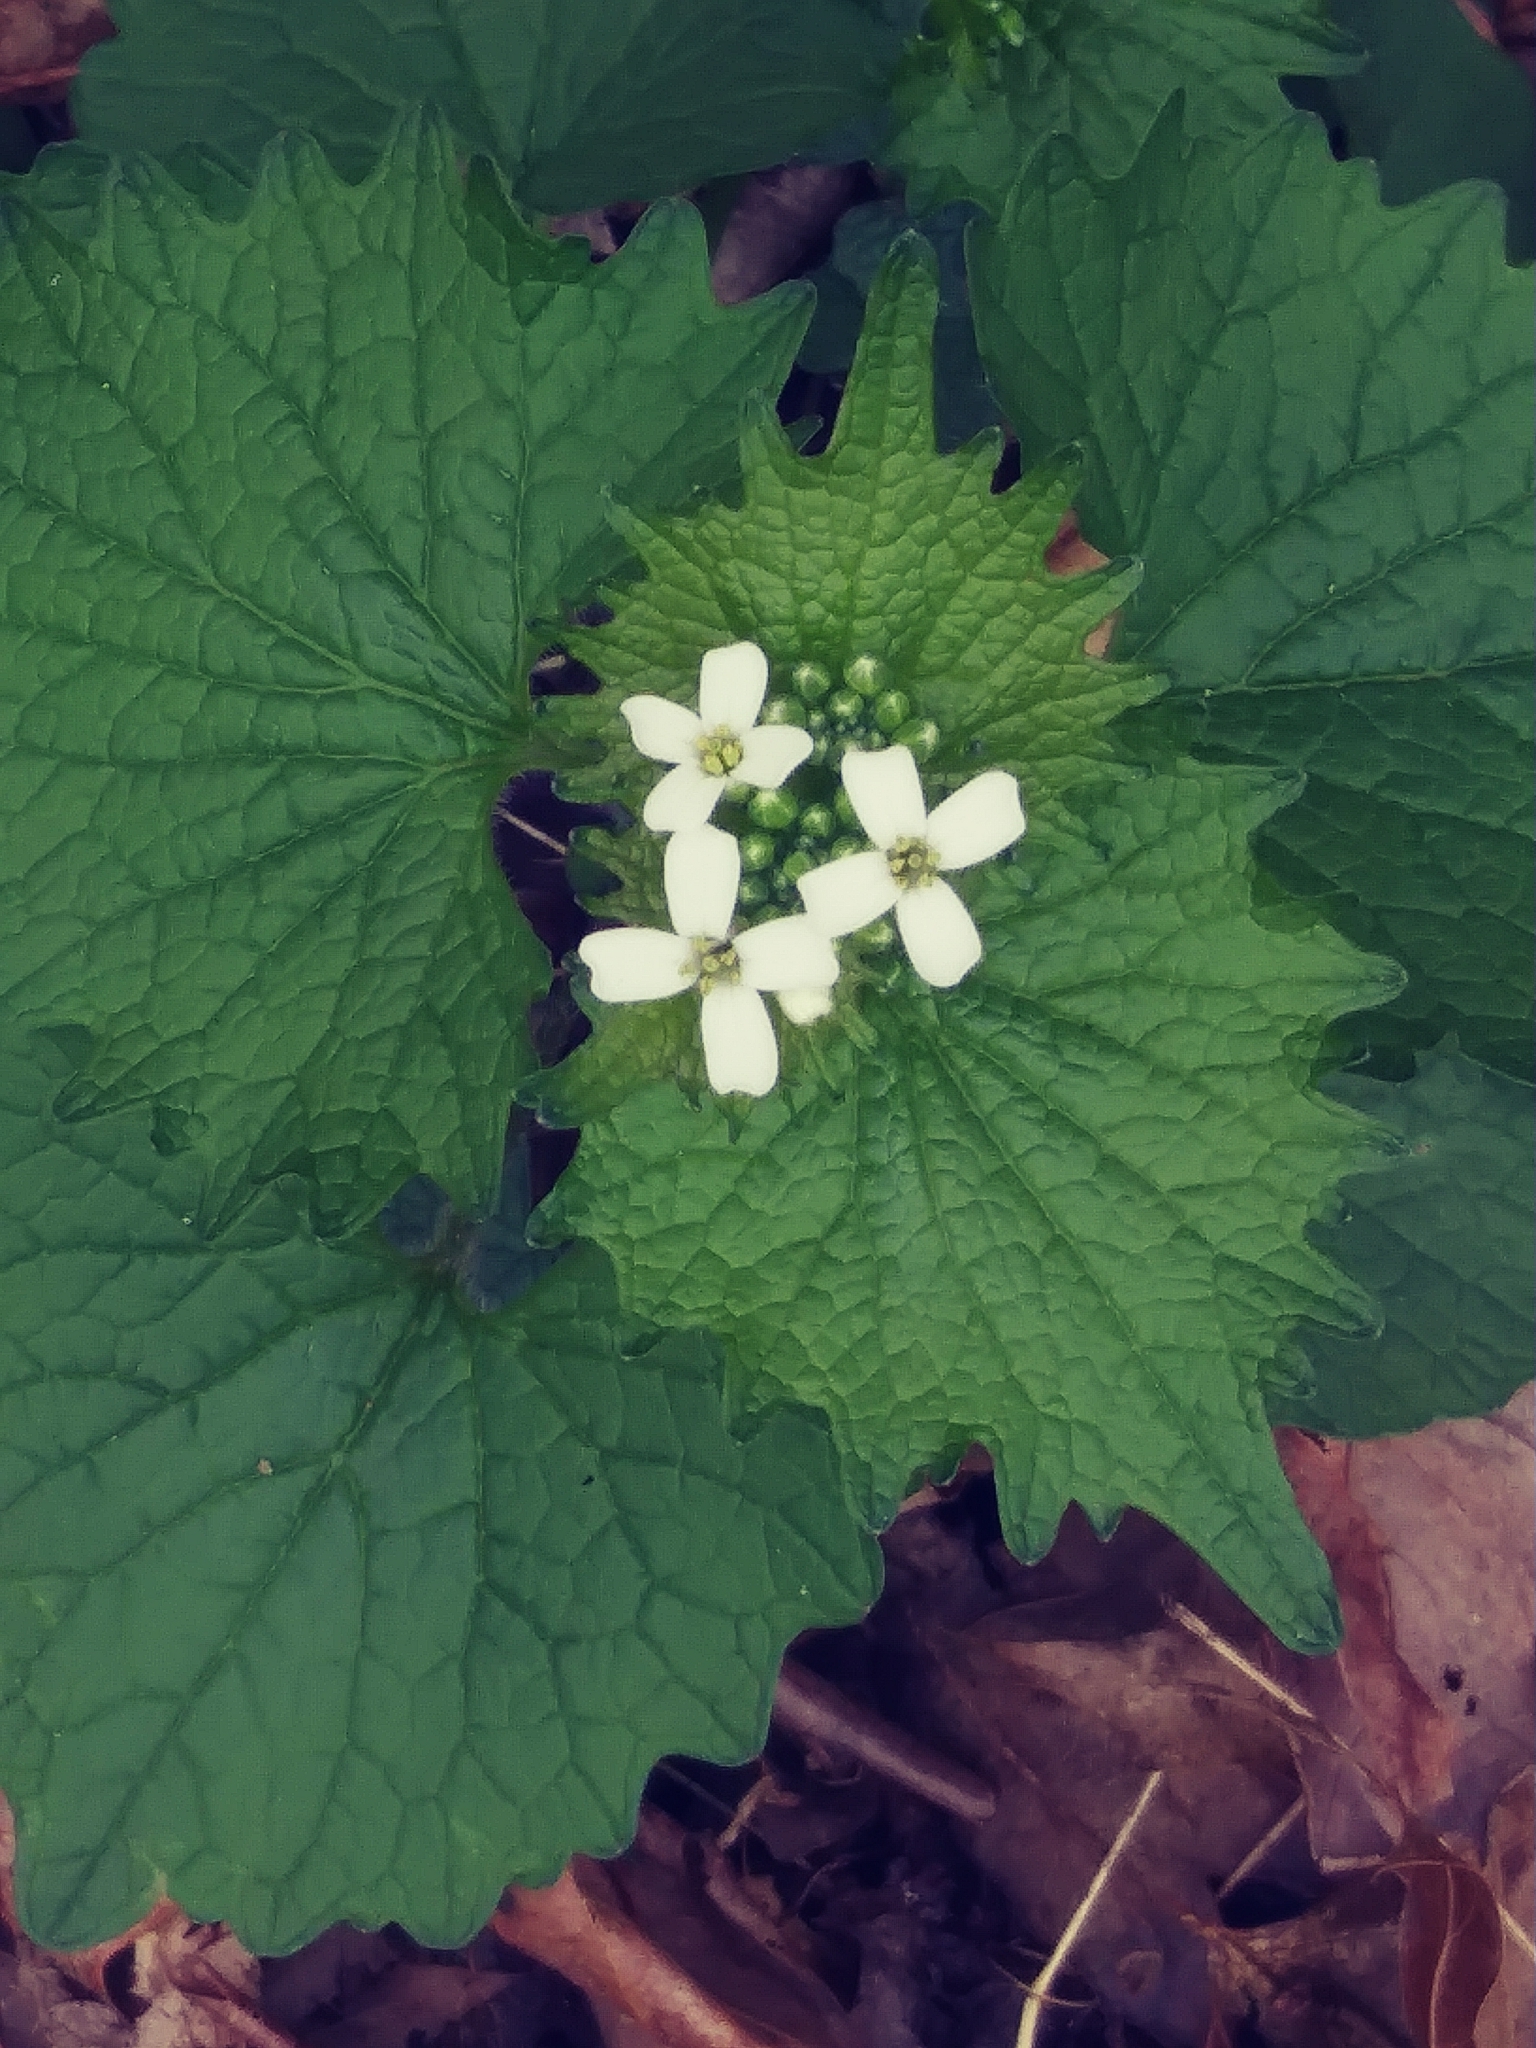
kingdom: Plantae
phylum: Tracheophyta
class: Magnoliopsida
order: Brassicales
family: Brassicaceae
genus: Alliaria
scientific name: Alliaria petiolata
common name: Garlic mustard
